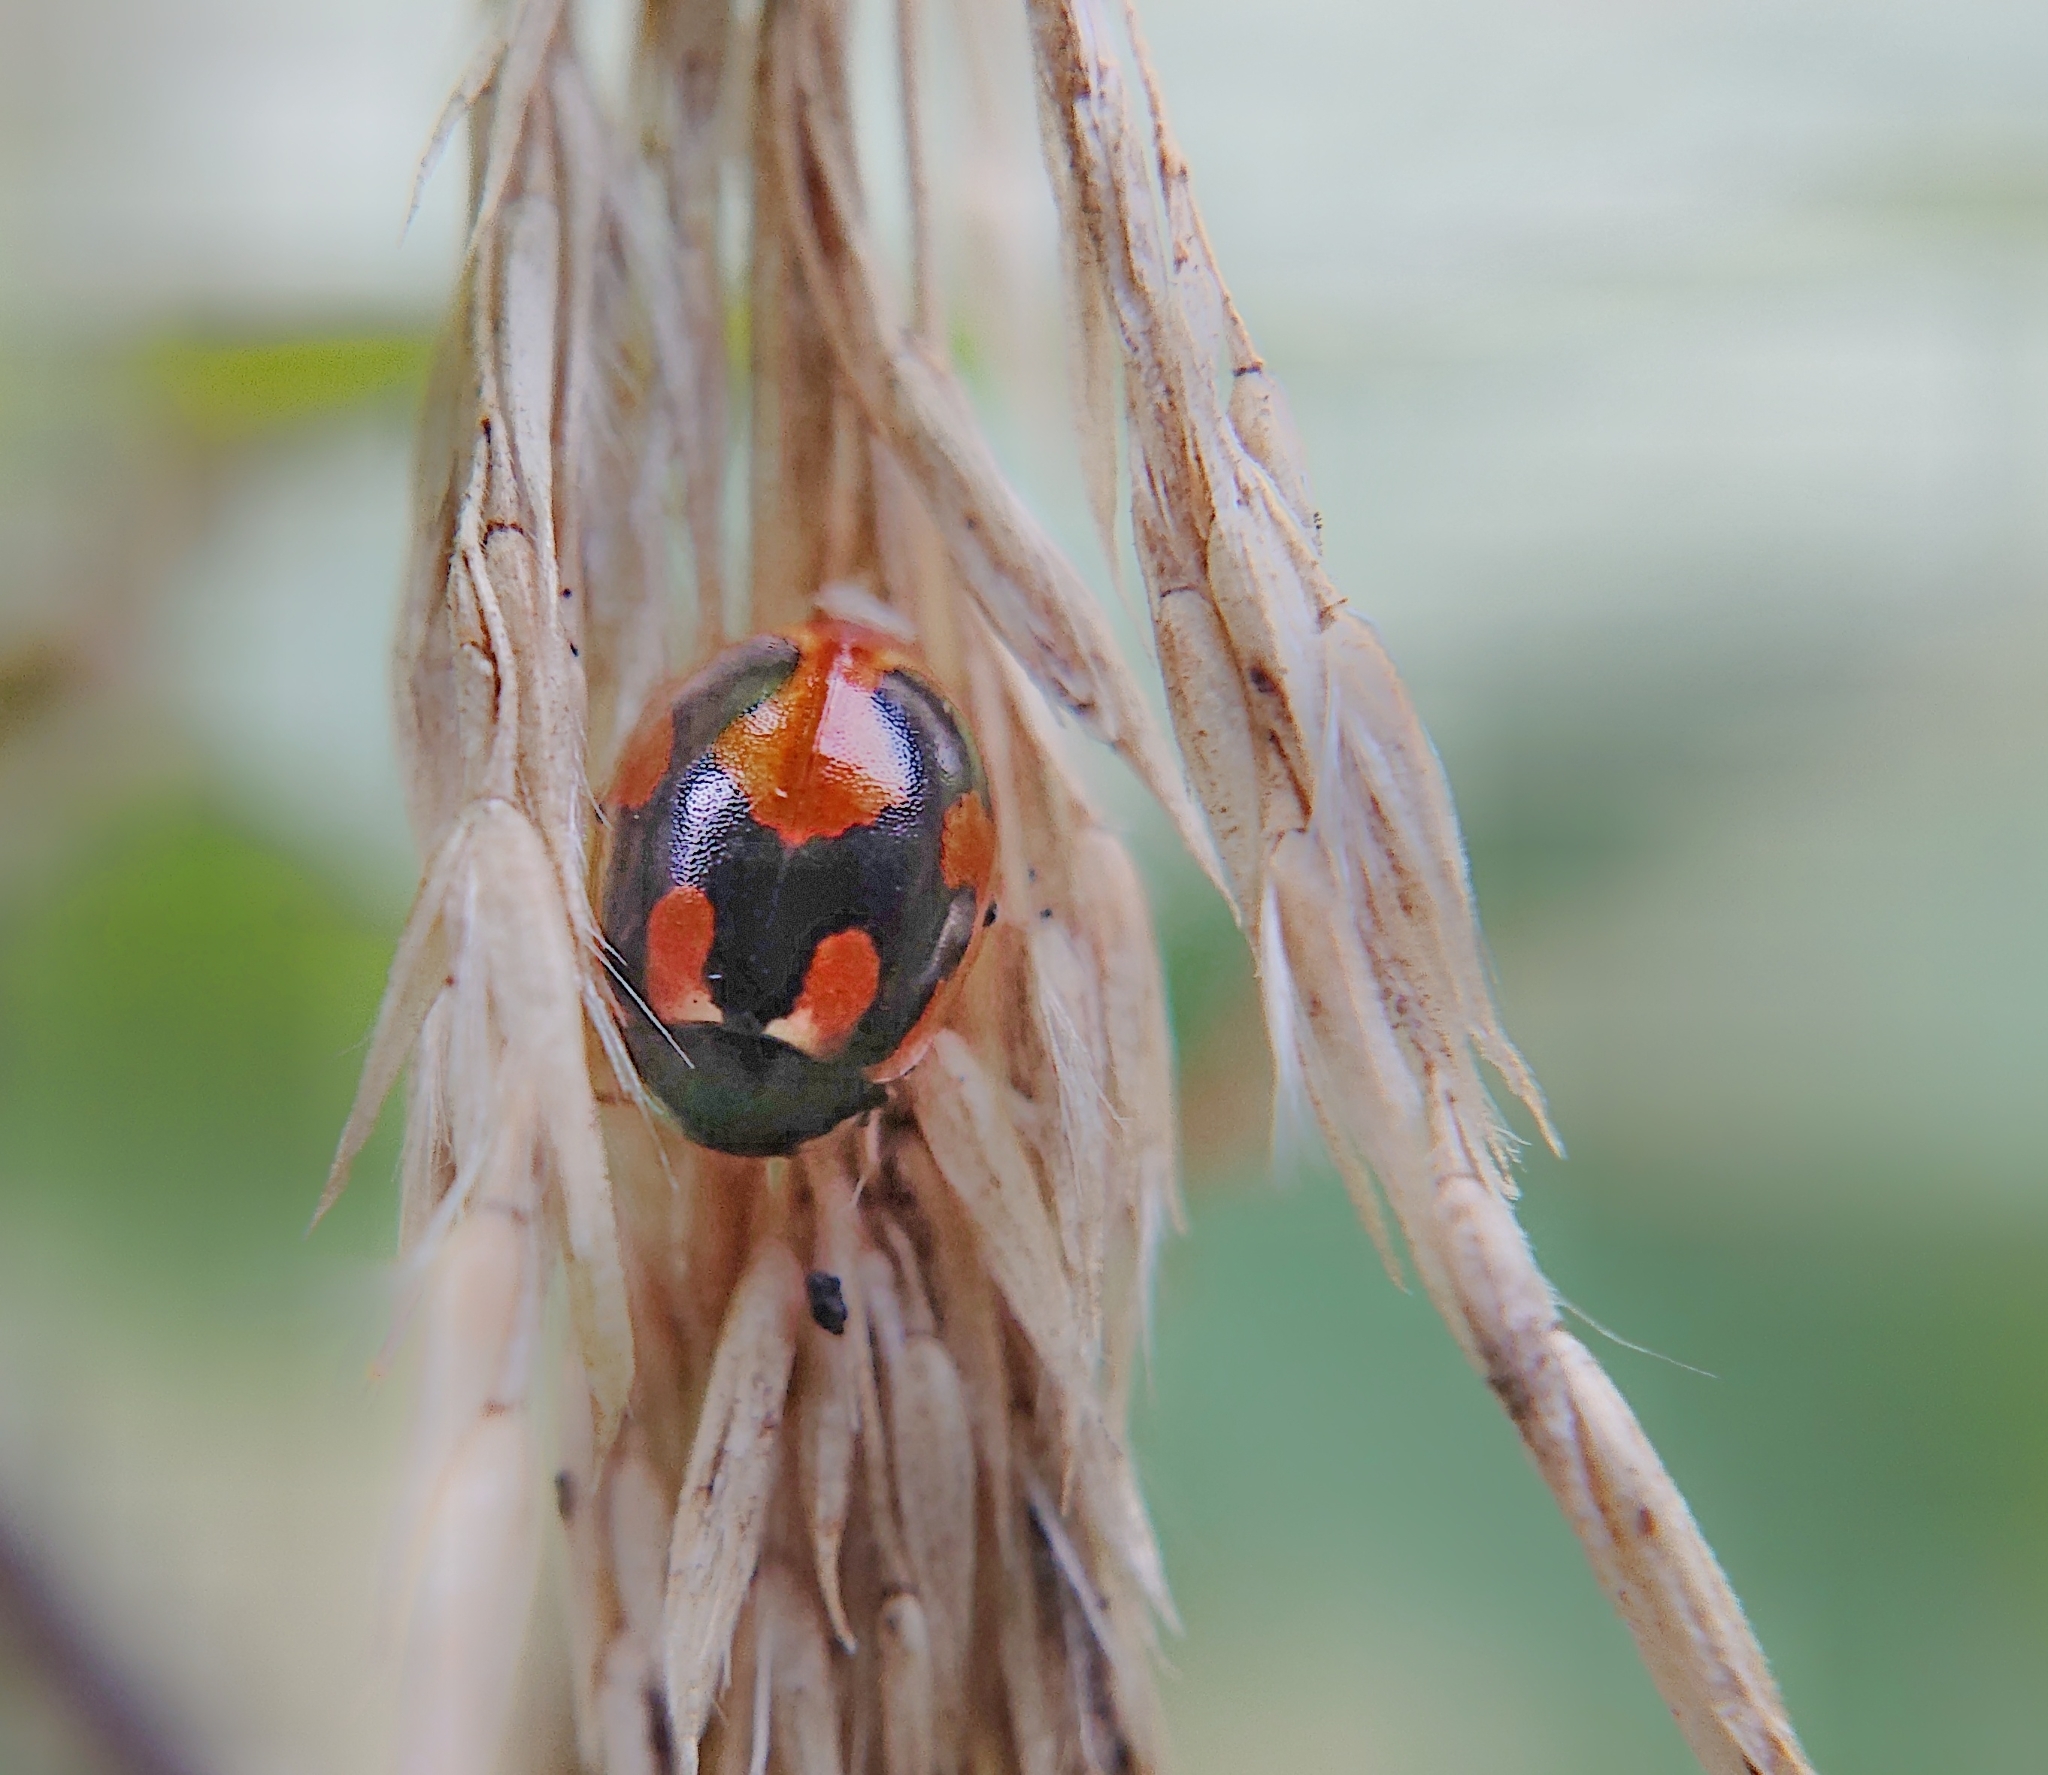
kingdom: Animalia
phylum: Arthropoda
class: Insecta
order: Coleoptera
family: Coccinellidae
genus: Coccinella
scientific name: Coccinella hieroglyphica
